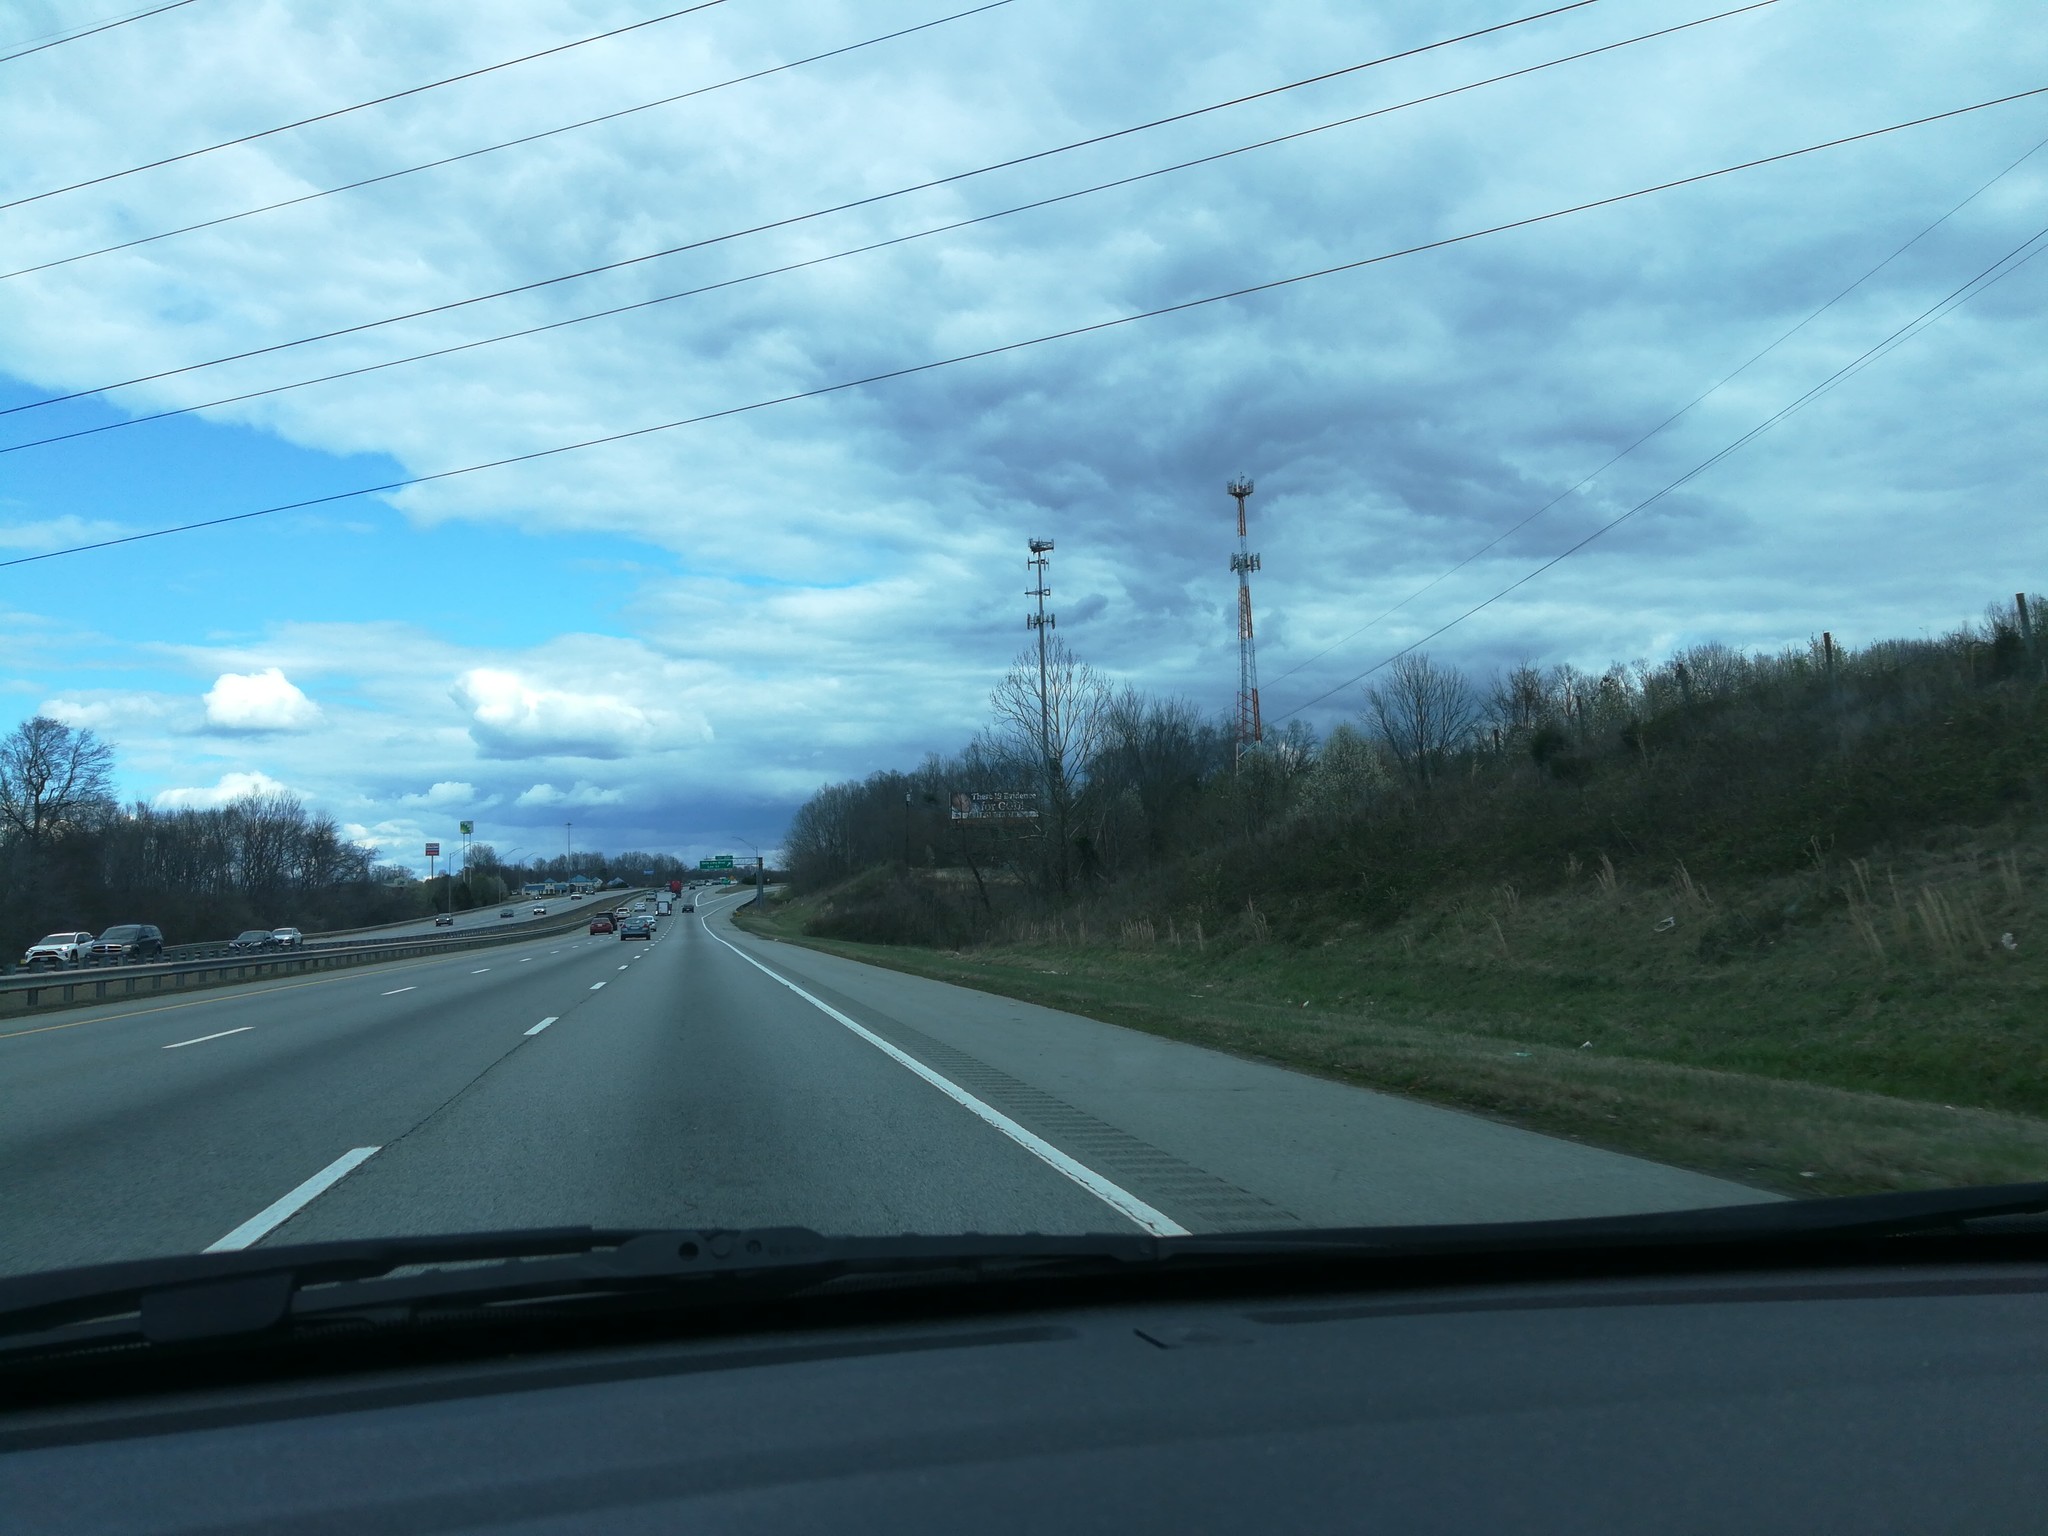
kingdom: Plantae
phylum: Tracheophyta
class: Magnoliopsida
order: Rosales
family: Rosaceae
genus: Pyrus
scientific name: Pyrus calleryana
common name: Callery pear
